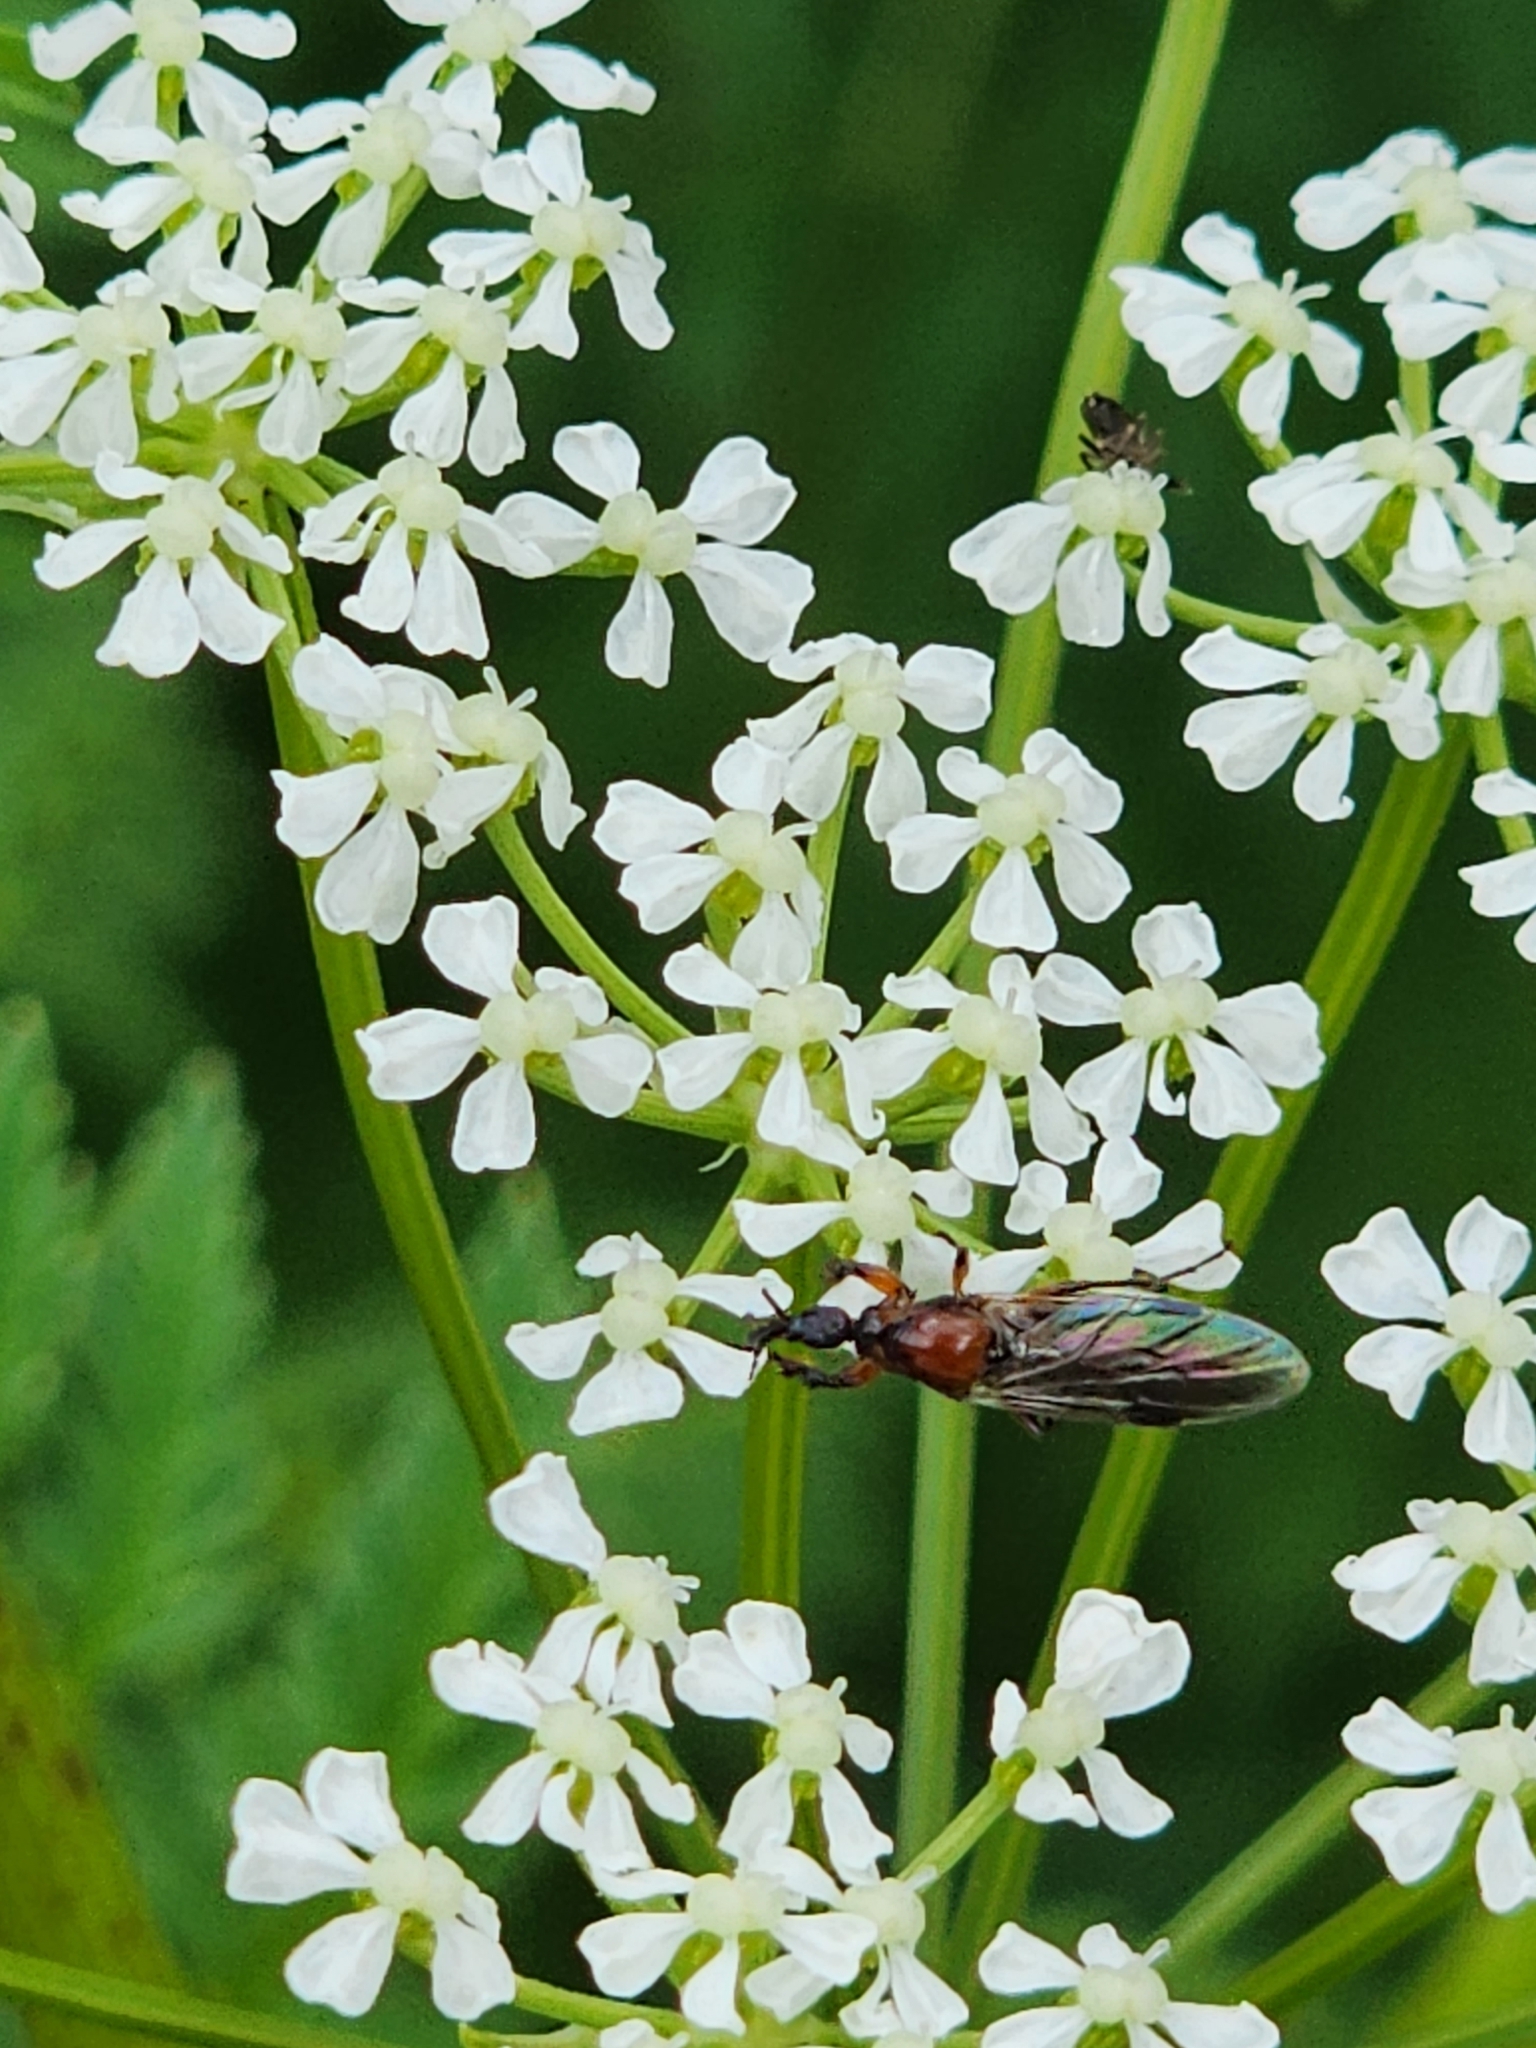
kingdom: Animalia
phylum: Arthropoda
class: Insecta
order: Diptera
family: Bibionidae
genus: Dilophus
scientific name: Dilophus strigilatus
